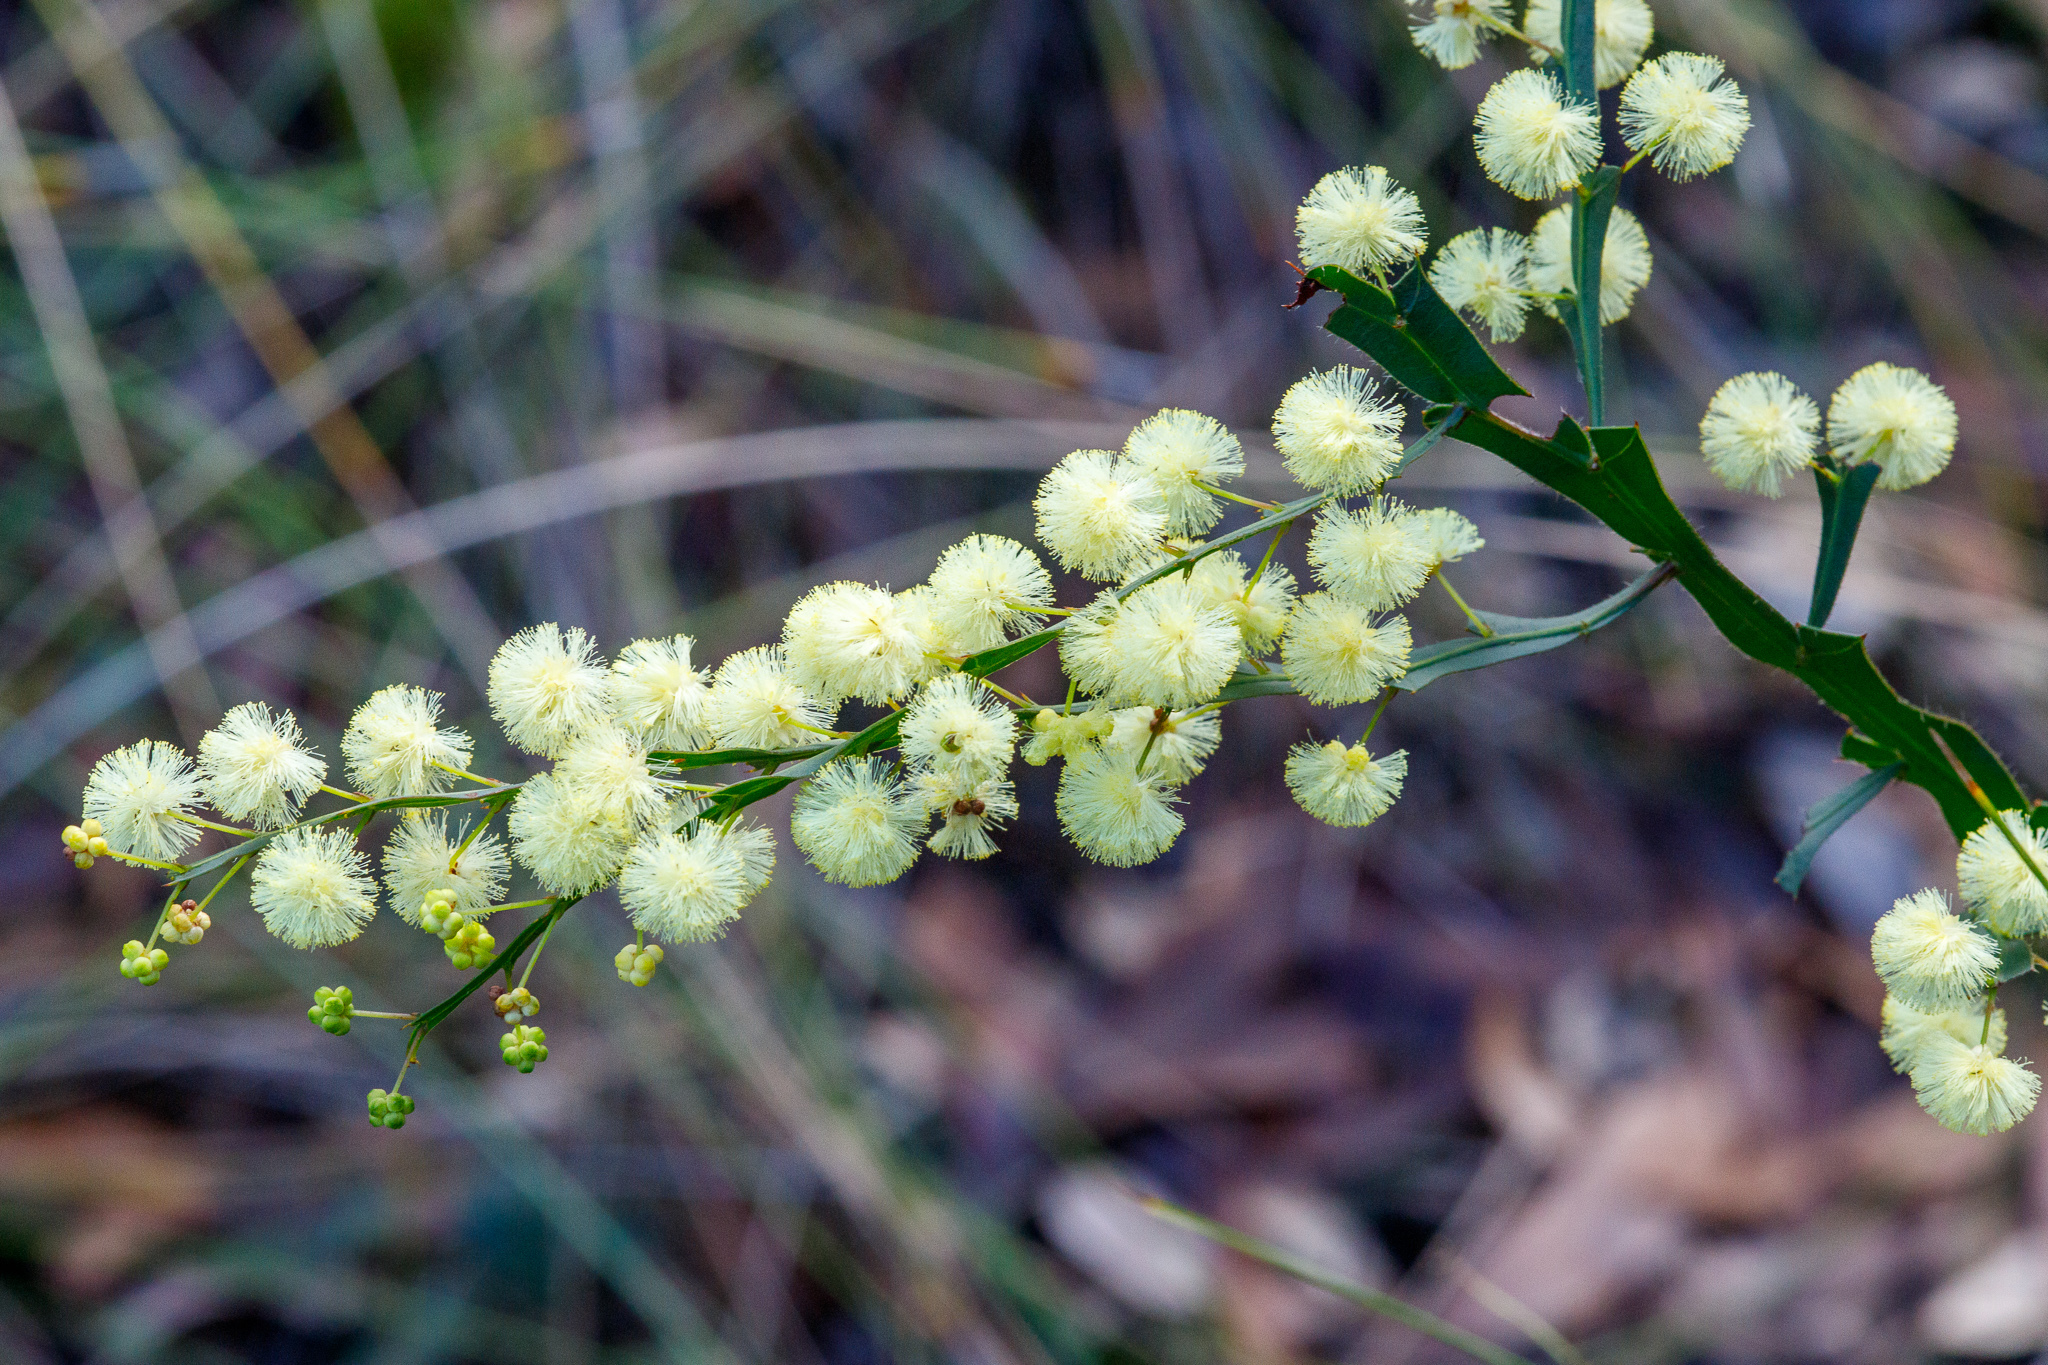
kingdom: Plantae
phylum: Tracheophyta
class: Magnoliopsida
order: Fabales
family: Fabaceae
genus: Acacia
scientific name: Acacia alata
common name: Winged wattle
